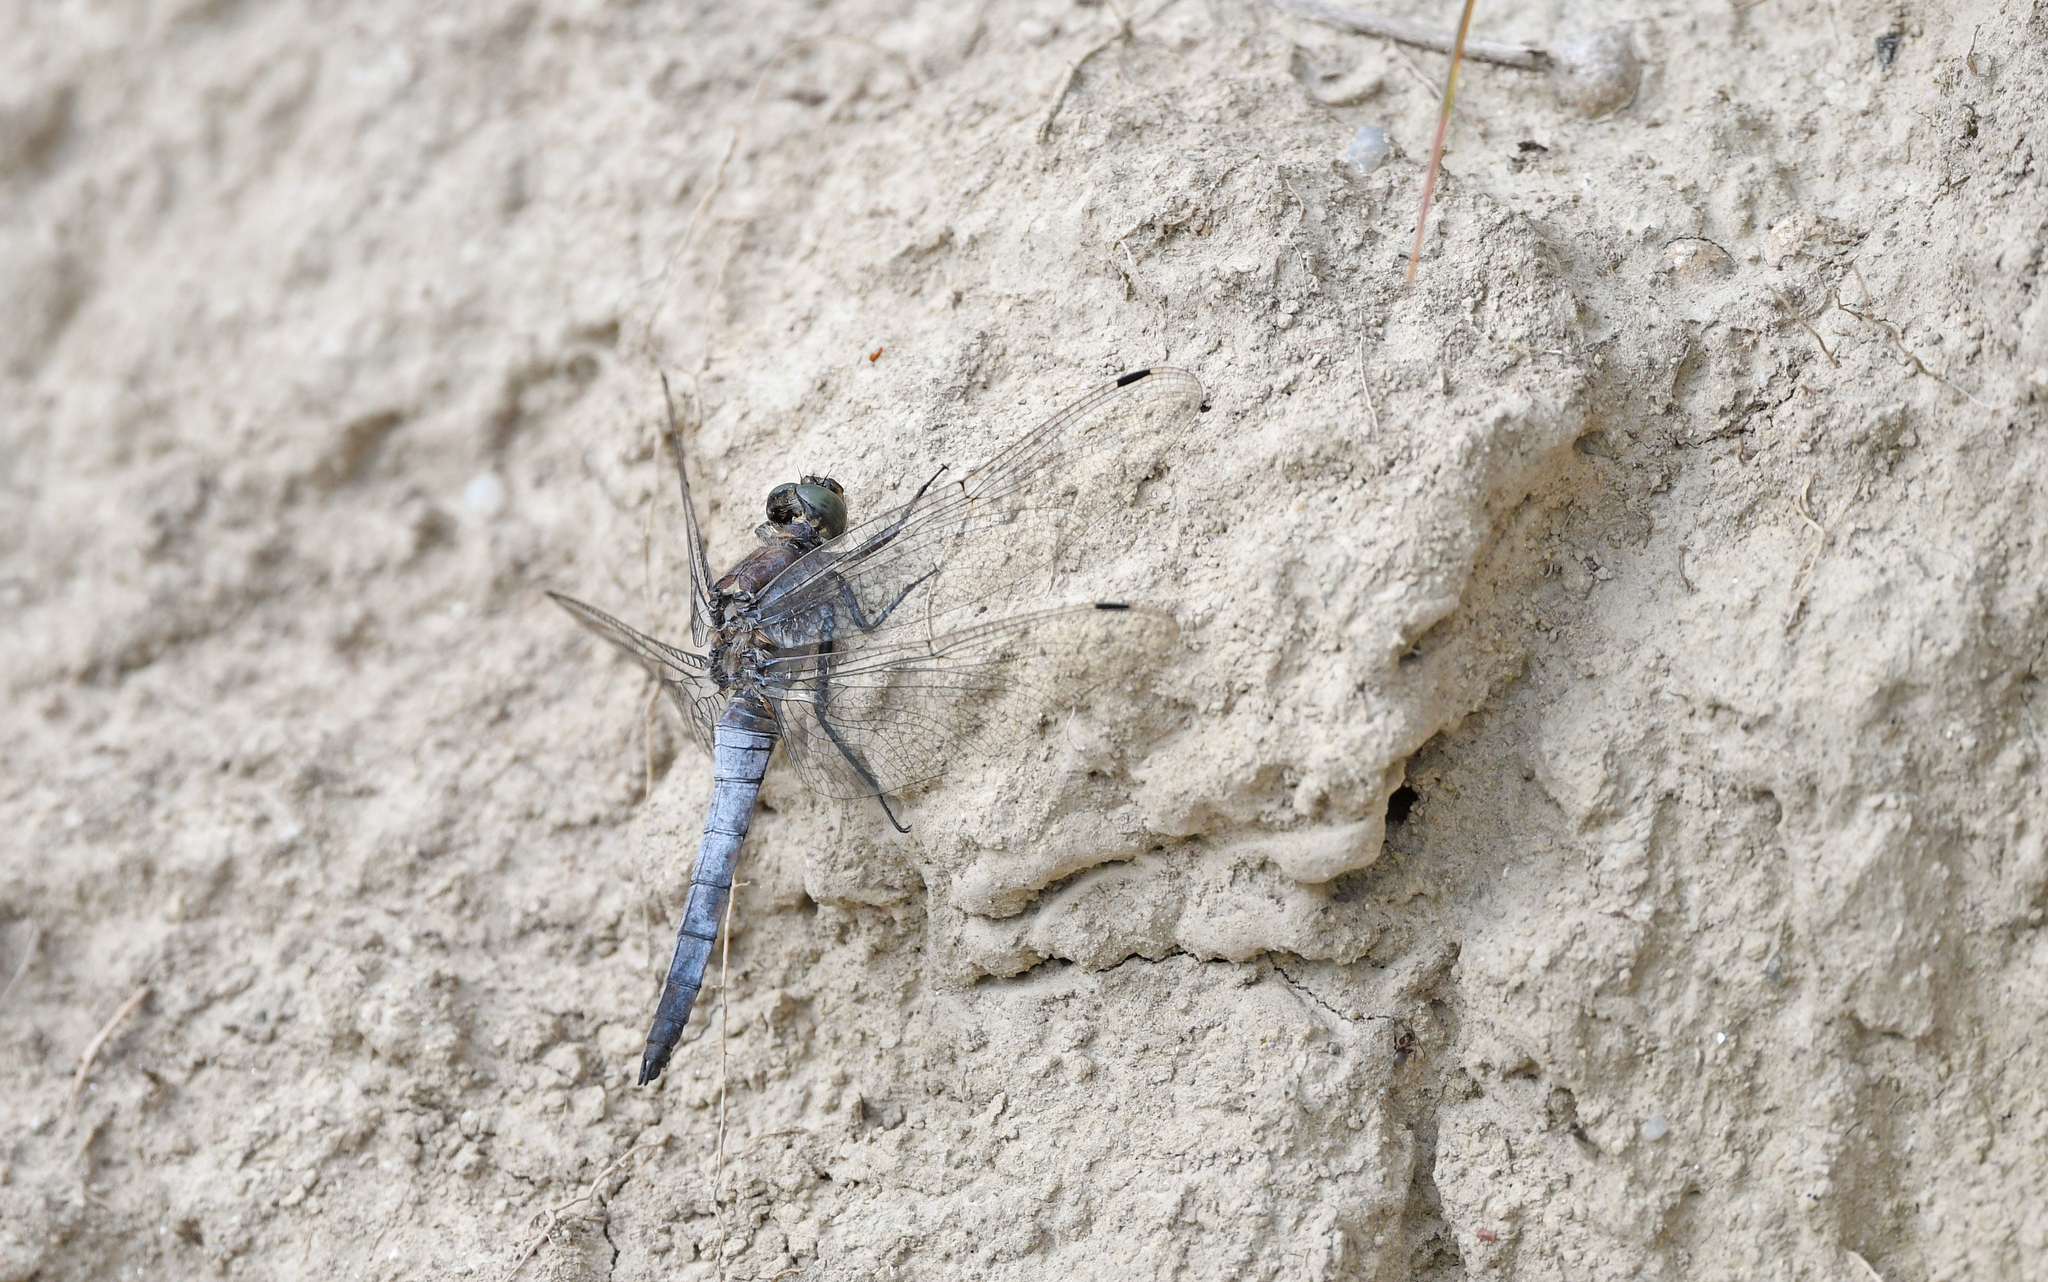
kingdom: Animalia
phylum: Arthropoda
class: Insecta
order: Odonata
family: Libellulidae
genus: Orthetrum
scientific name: Orthetrum cancellatum
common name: Black-tailed skimmer
